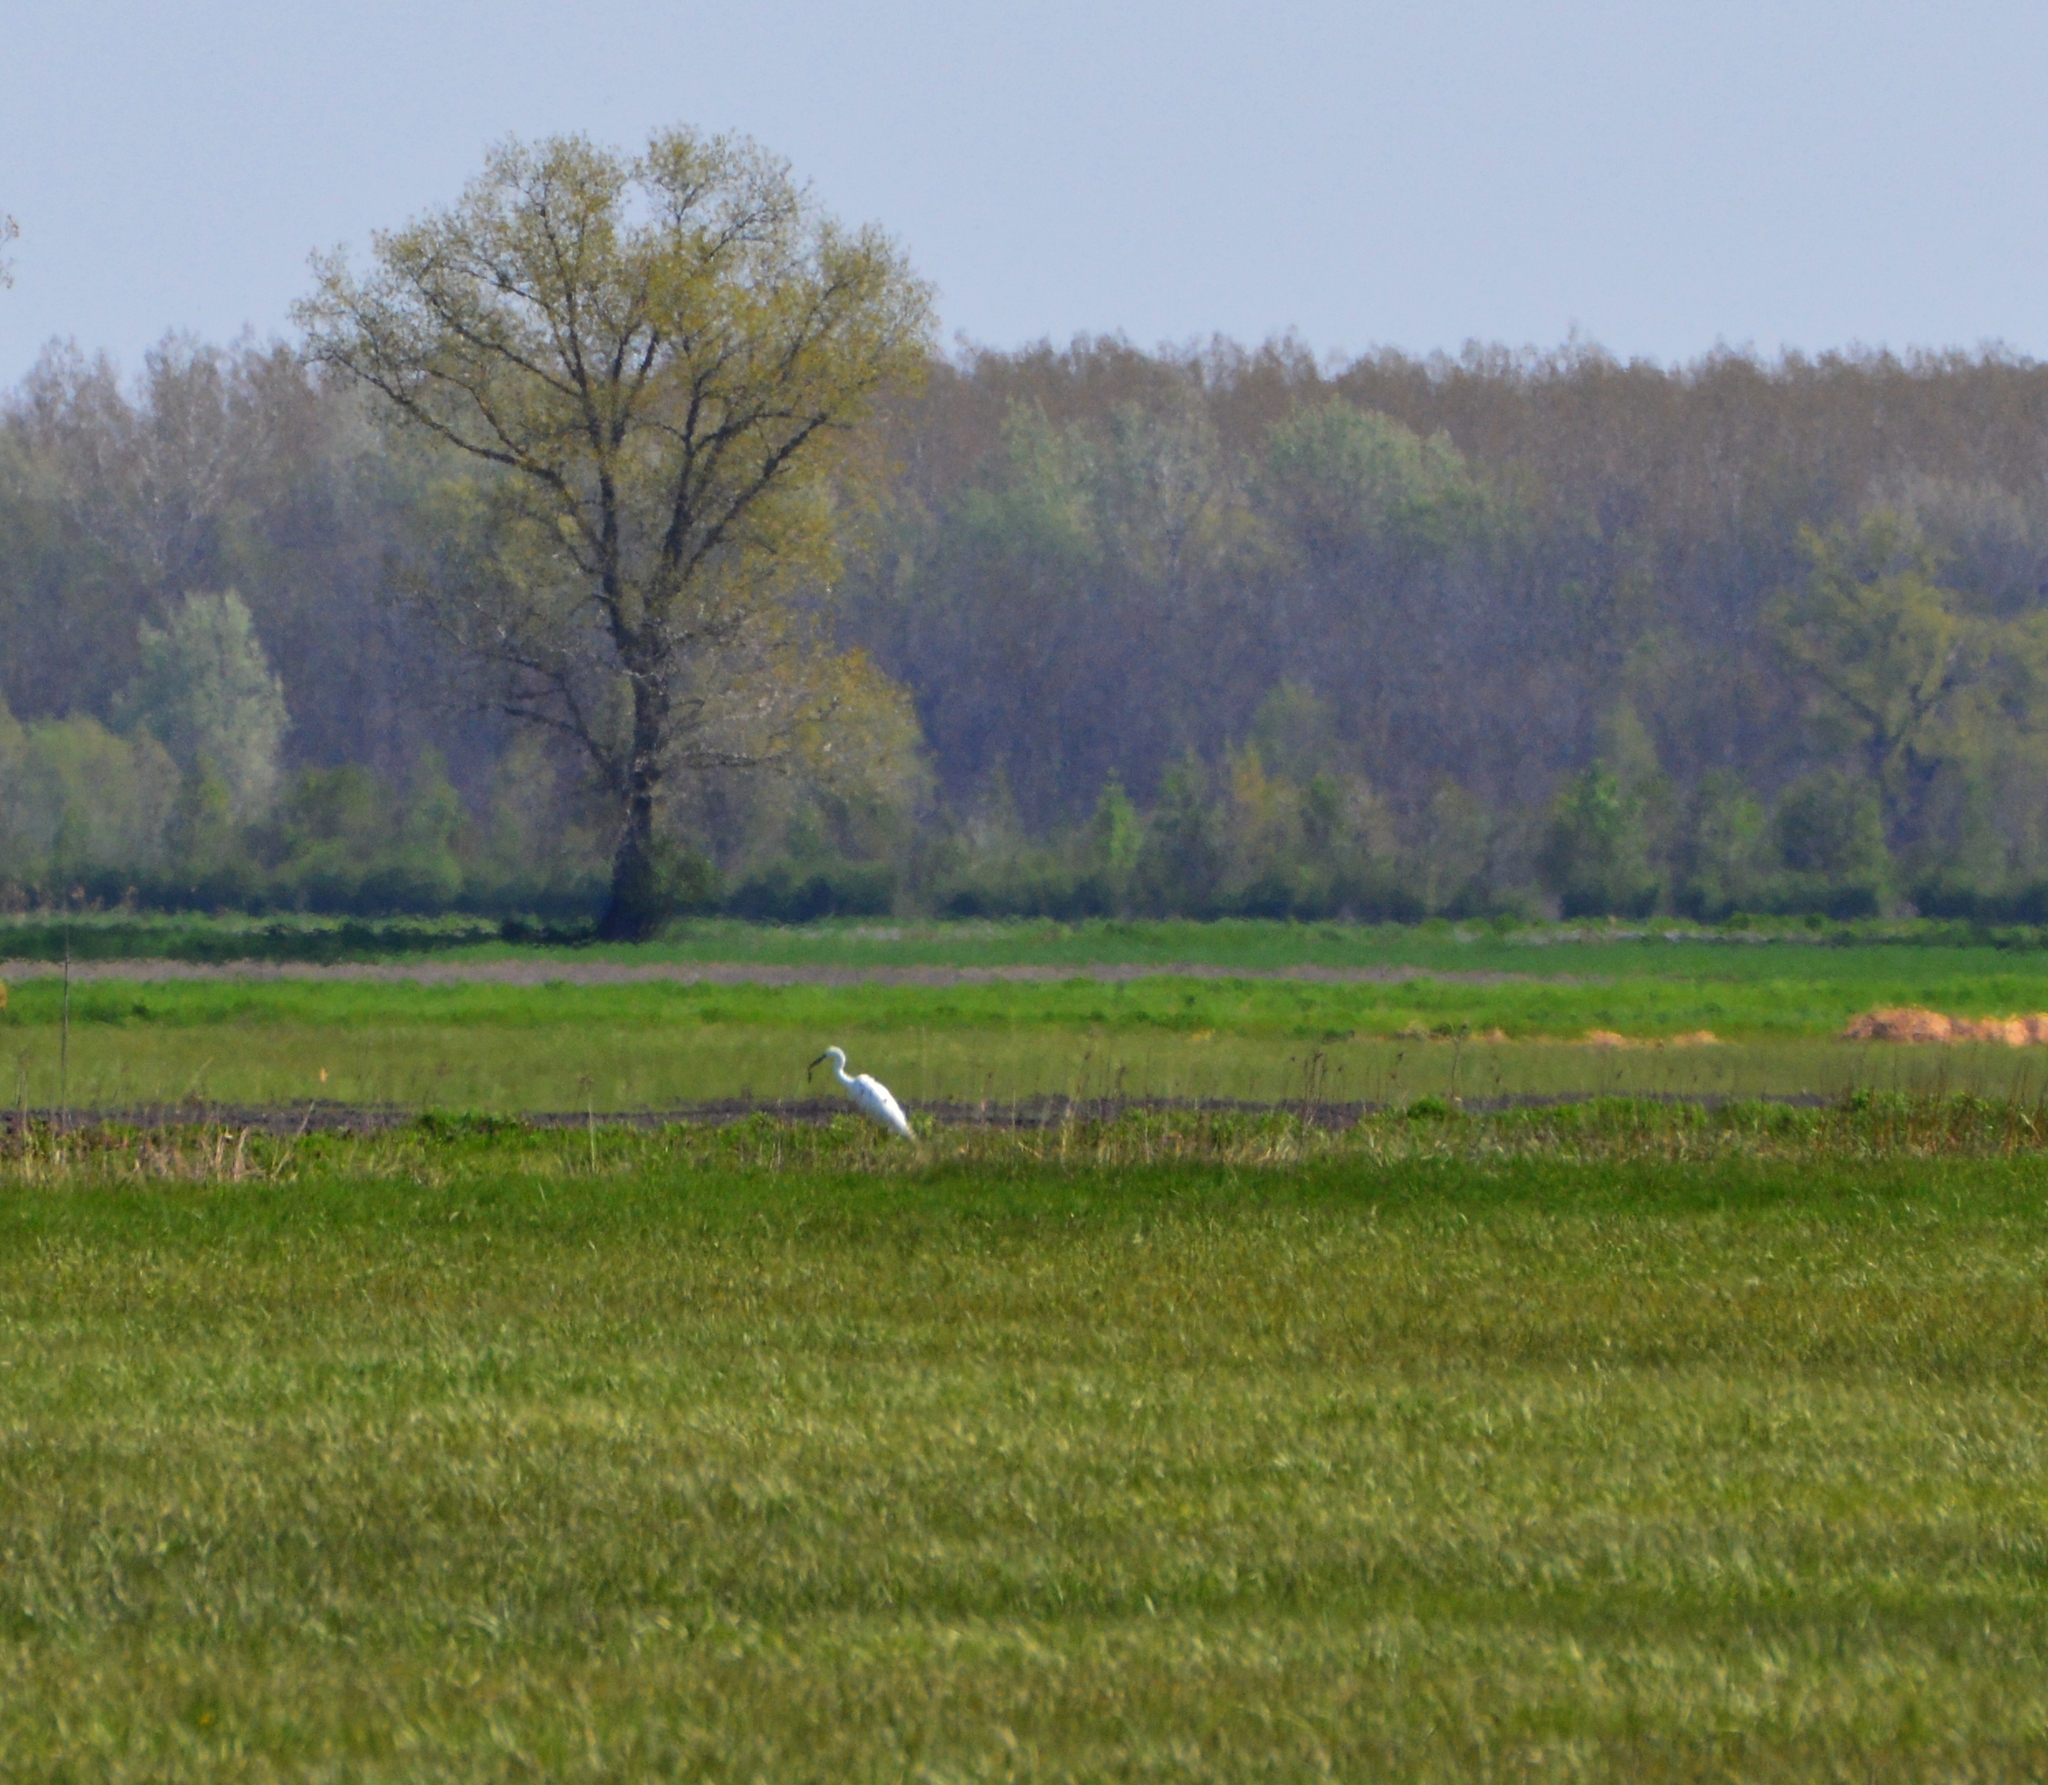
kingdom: Animalia
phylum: Chordata
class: Aves
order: Pelecaniformes
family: Ardeidae
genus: Ardea
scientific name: Ardea alba
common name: Great egret
